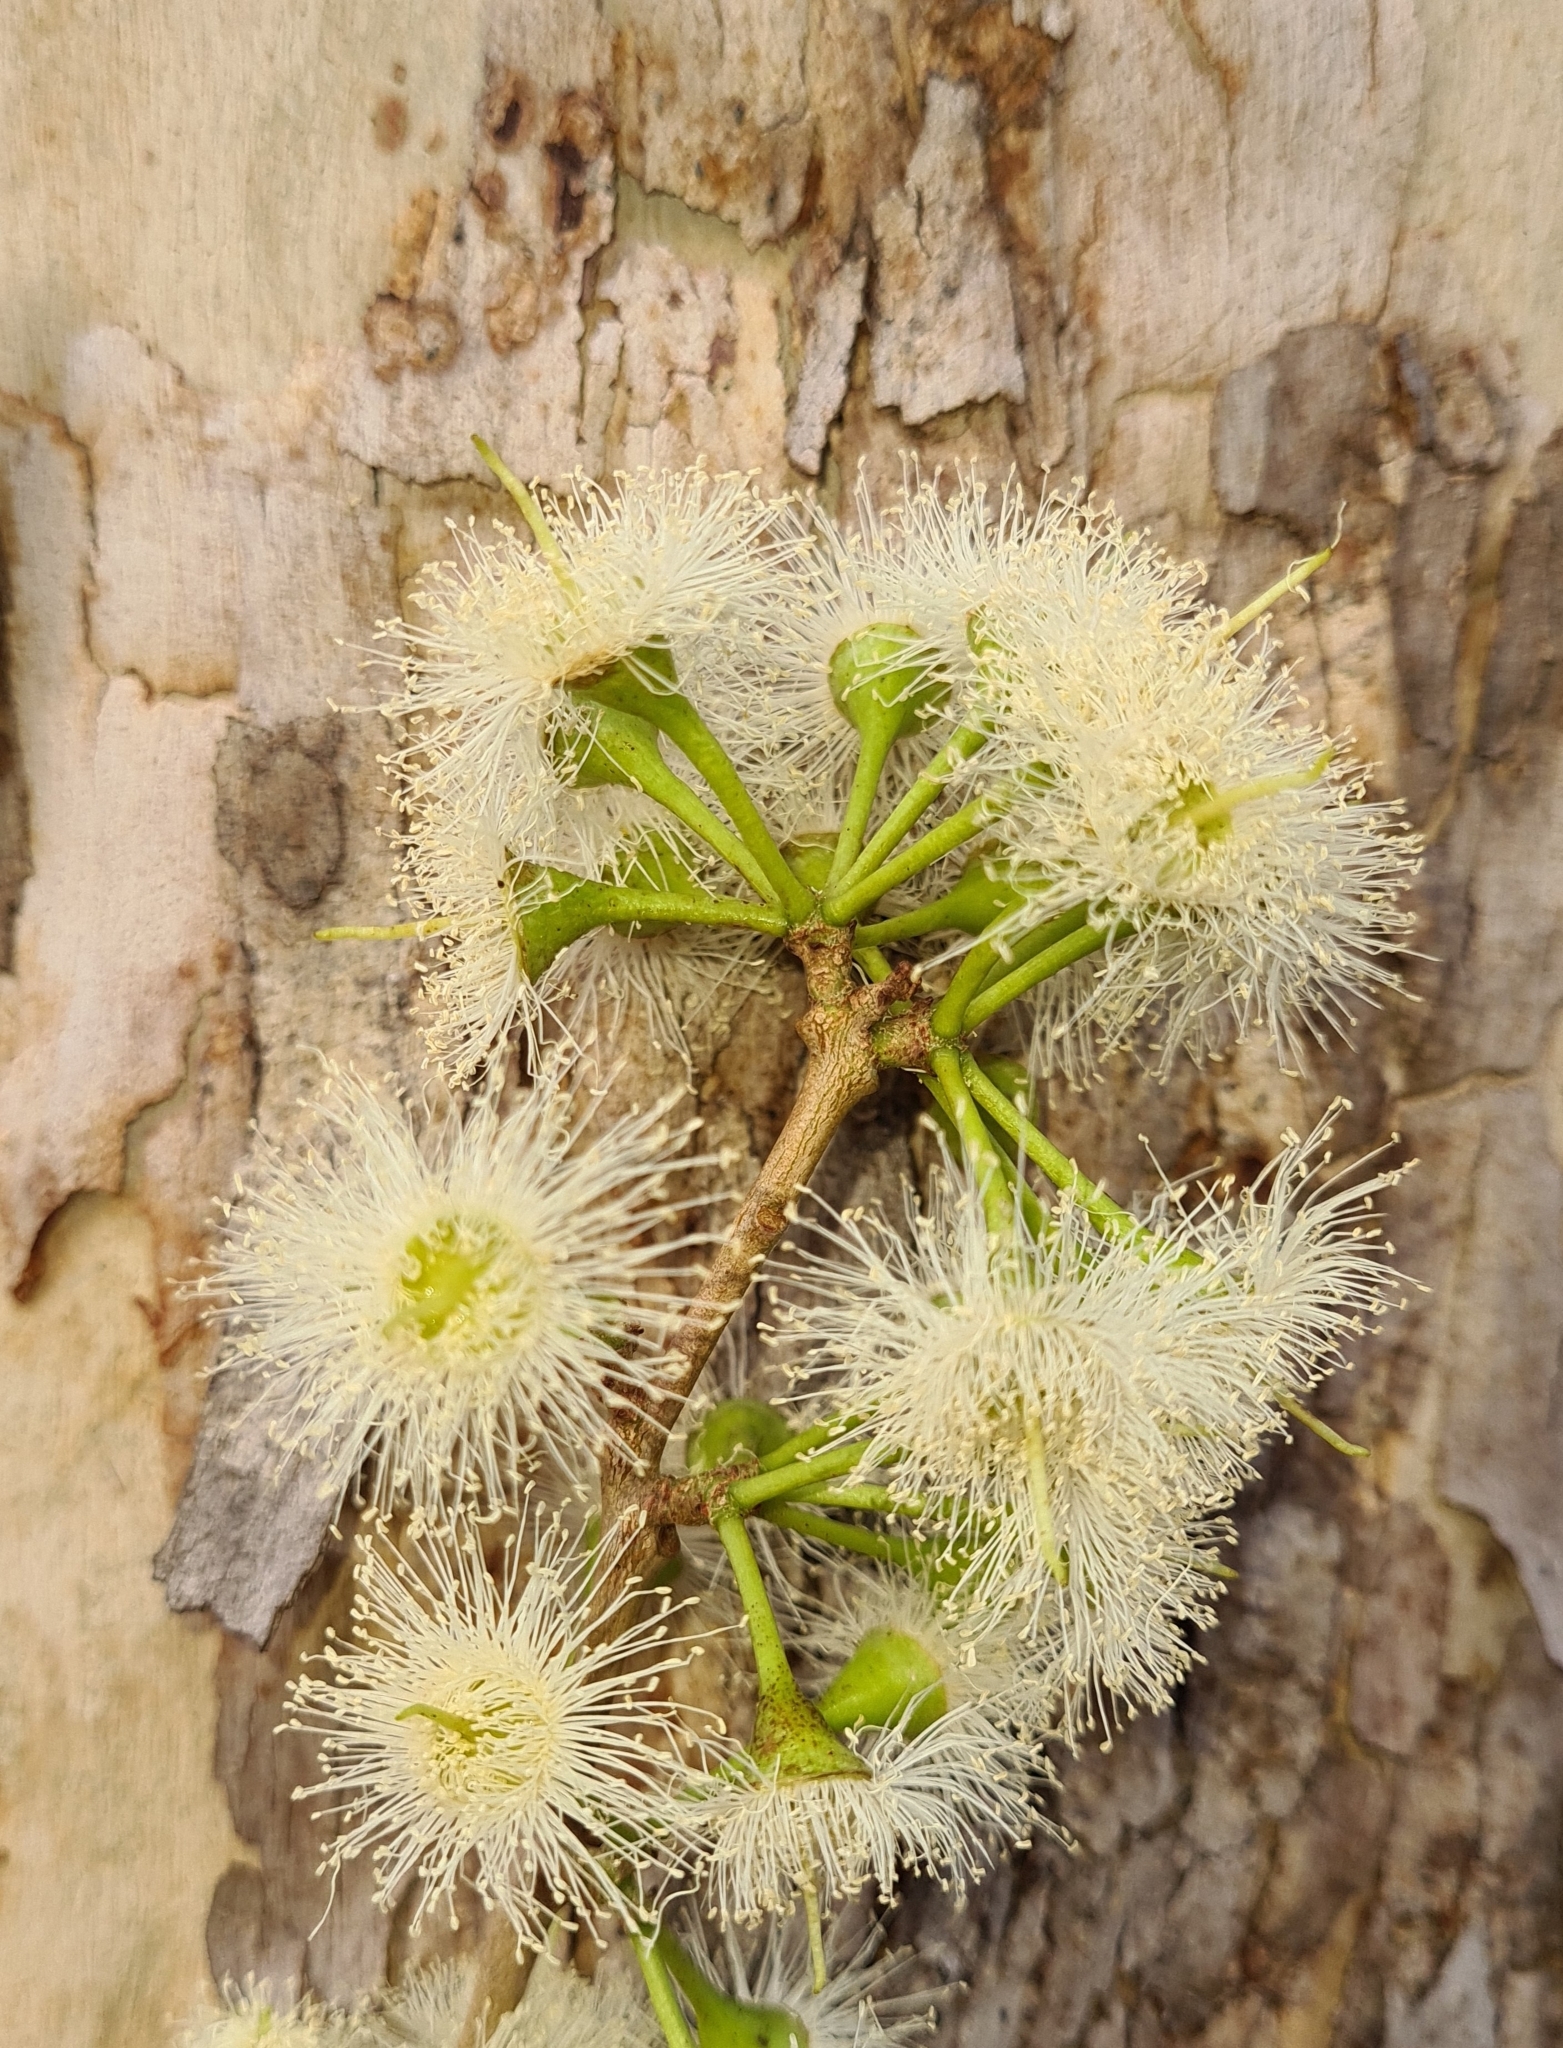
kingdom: Plantae
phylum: Tracheophyta
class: Magnoliopsida
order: Myrtales
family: Myrtaceae
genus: Corymbia
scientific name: Corymbia grandifolia
